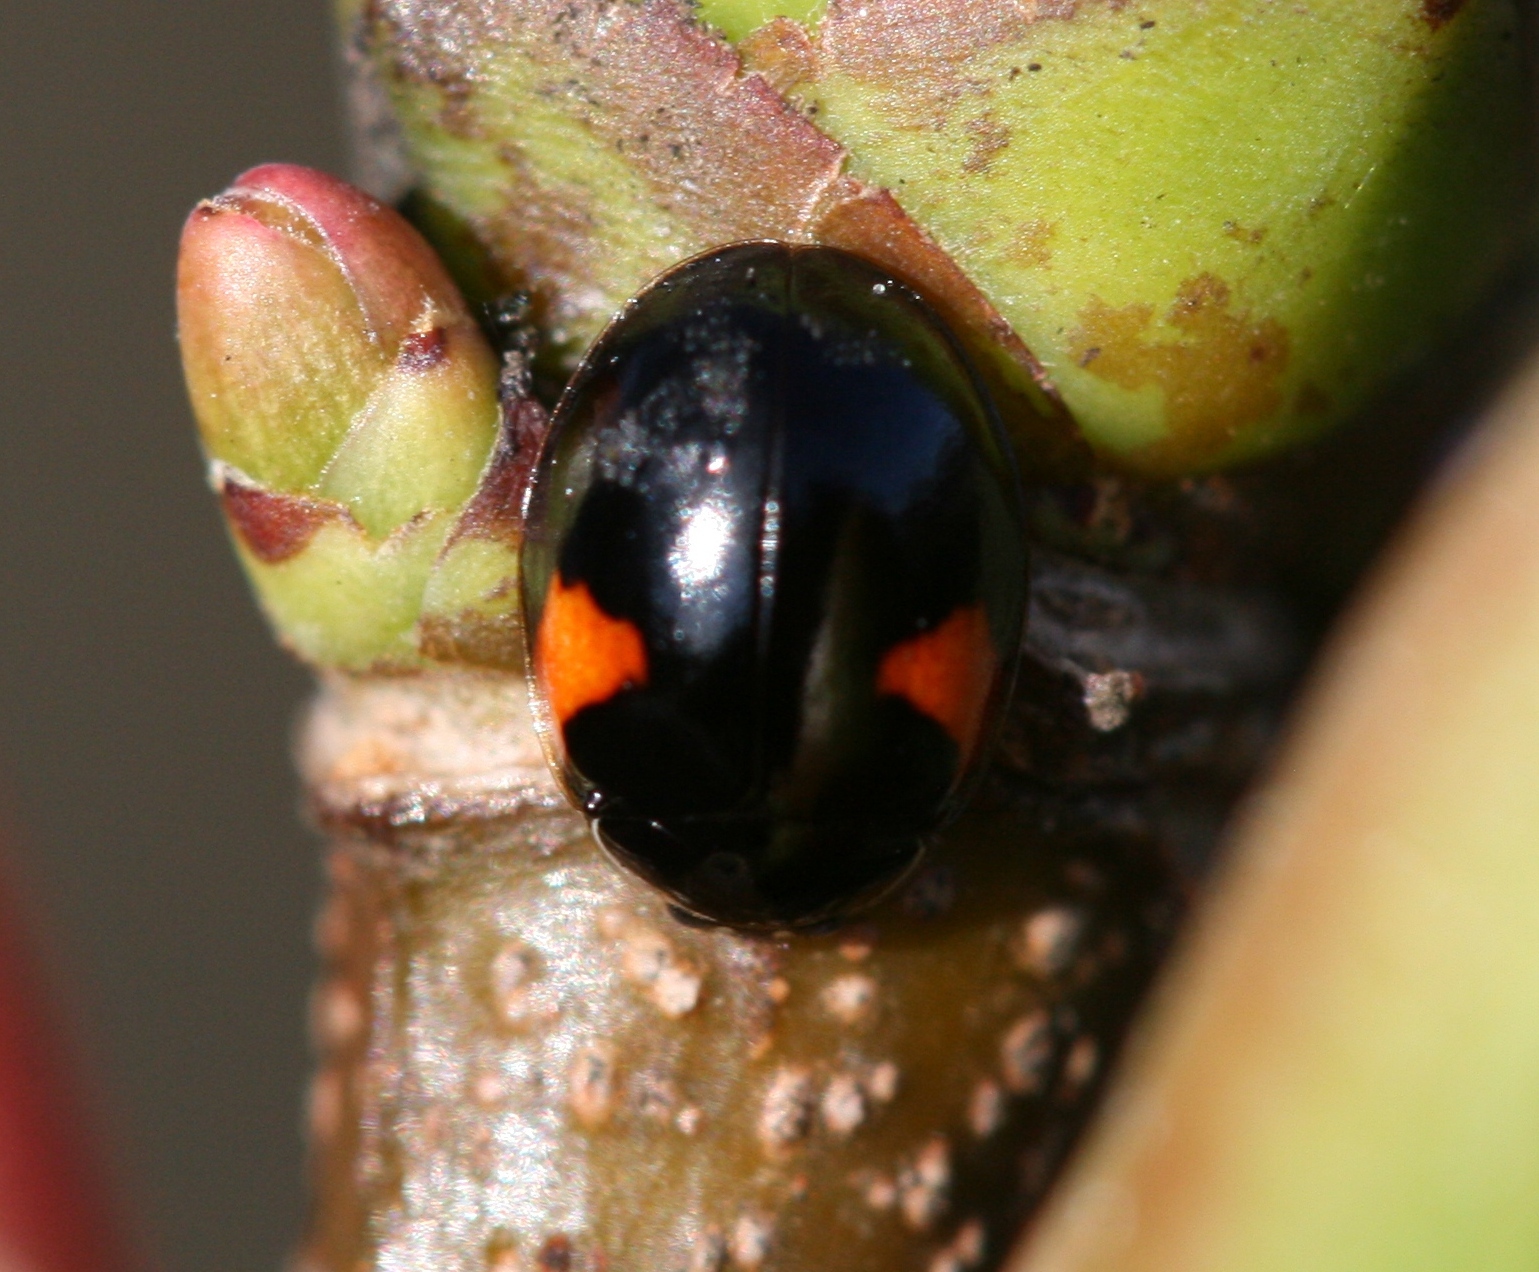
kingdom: Animalia
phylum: Arthropoda
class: Insecta
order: Coleoptera
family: Coccinellidae
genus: Adalia
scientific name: Adalia decempunctata
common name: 10-spot ladybird
